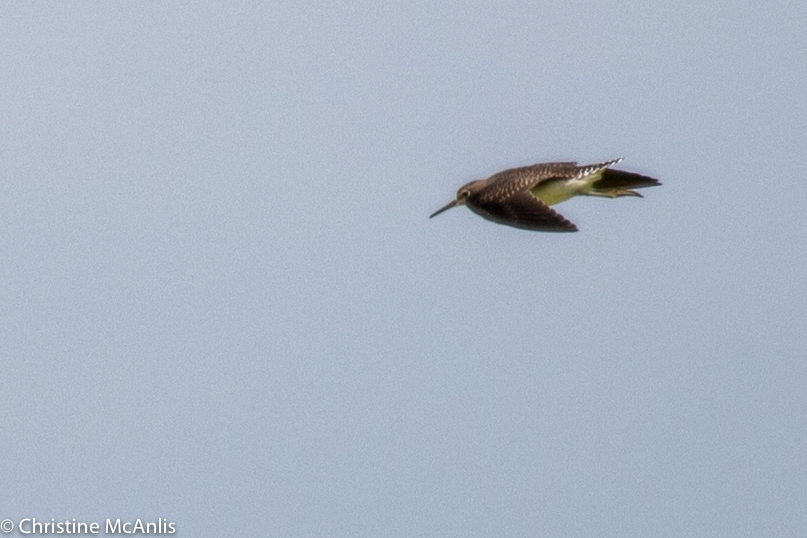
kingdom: Animalia
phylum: Chordata
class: Aves
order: Charadriiformes
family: Scolopacidae
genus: Tringa
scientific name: Tringa solitaria
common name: Solitary sandpiper
